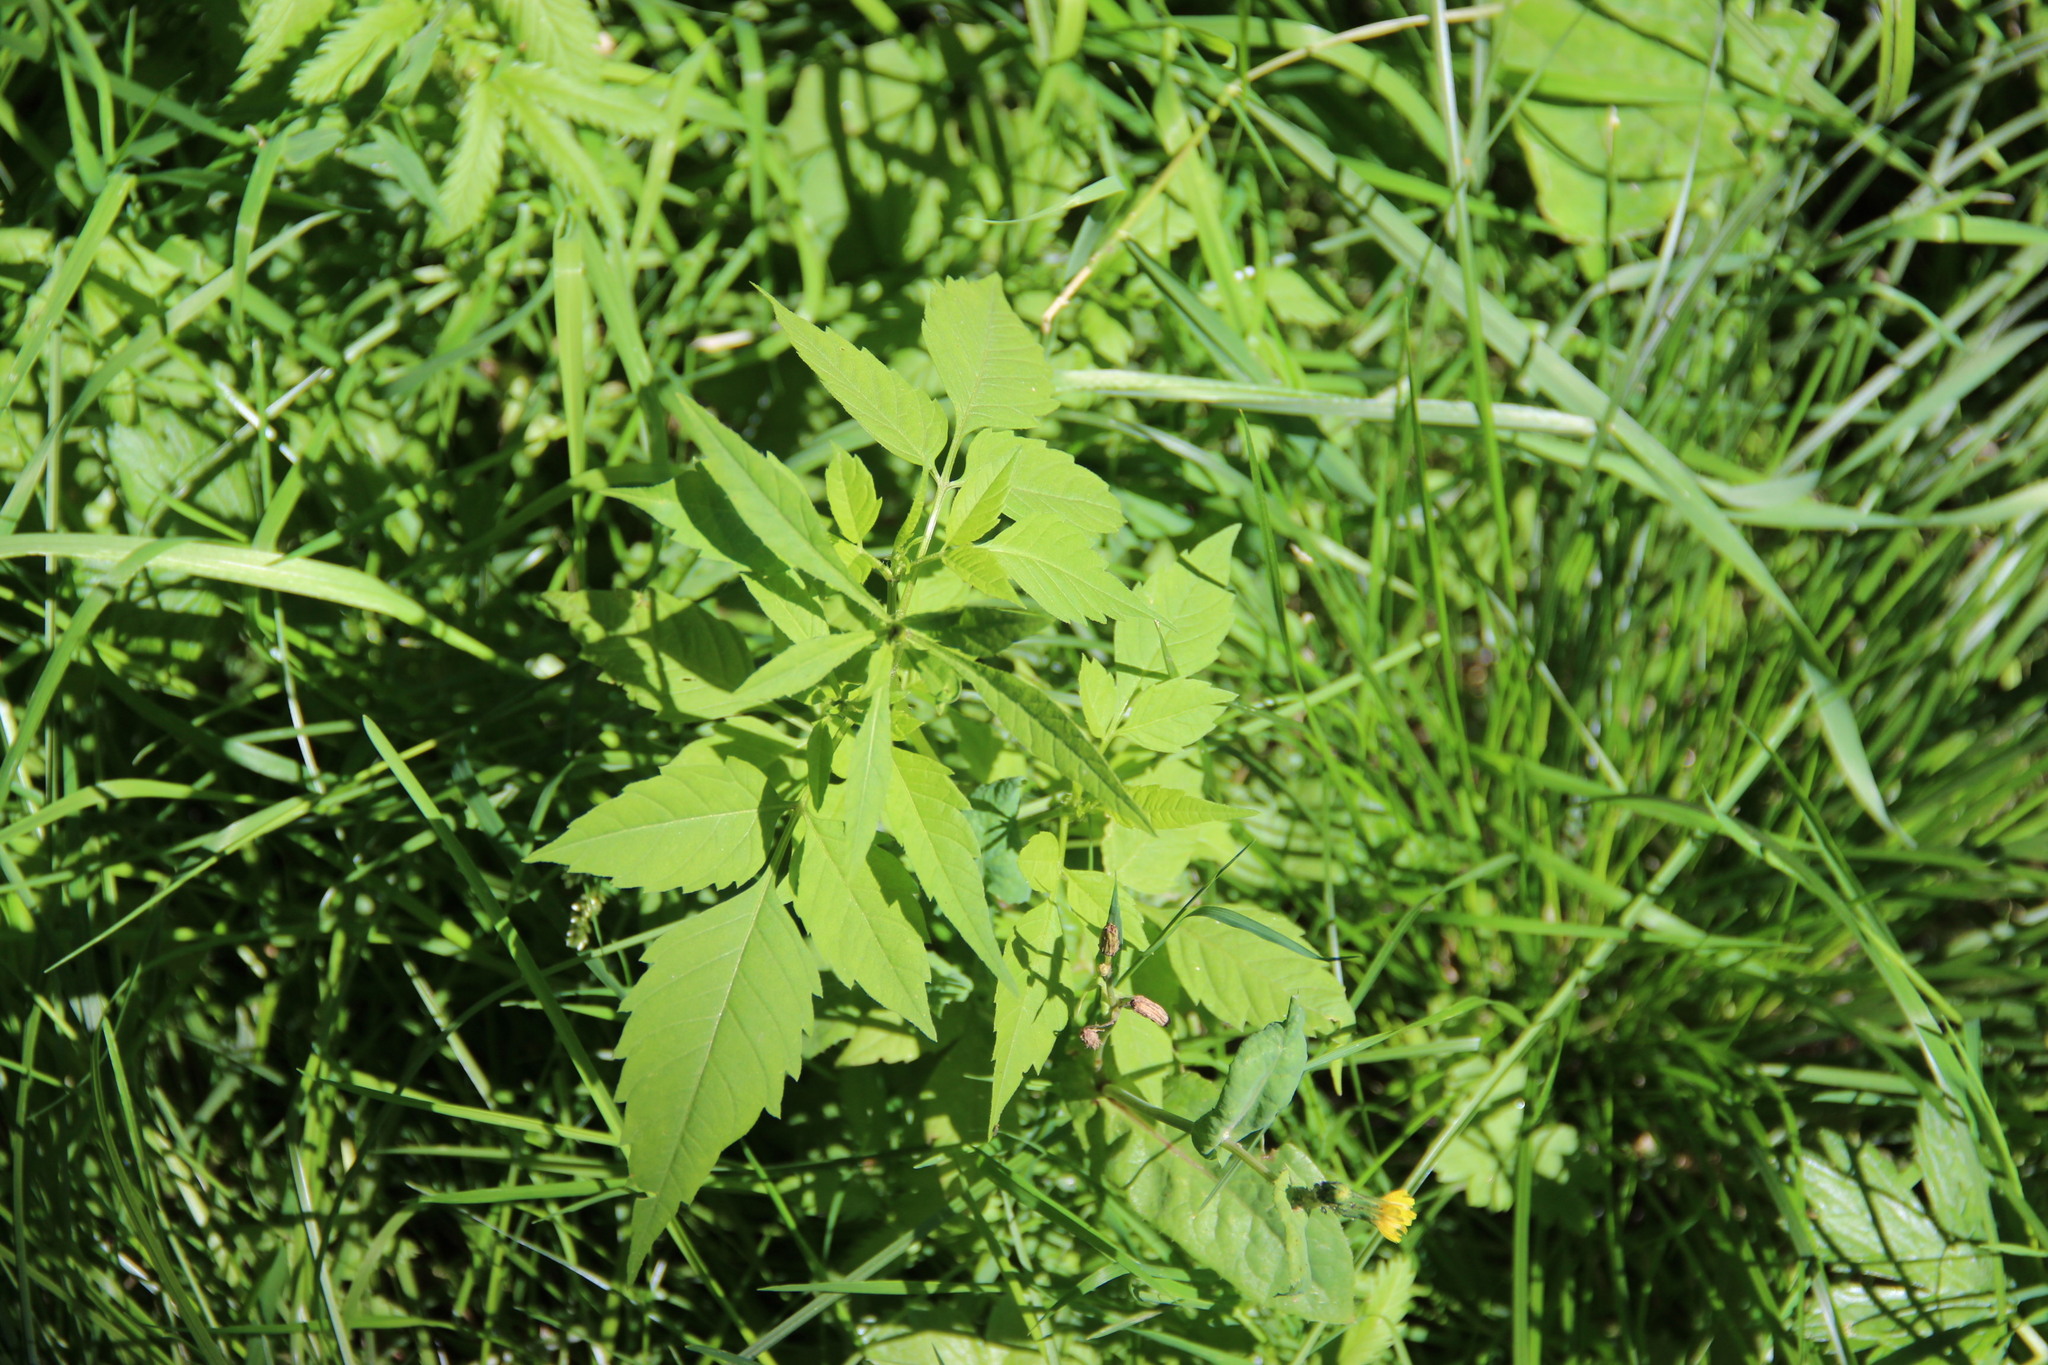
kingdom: Plantae
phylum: Tracheophyta
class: Magnoliopsida
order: Asterales
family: Asteraceae
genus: Bidens
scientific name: Bidens frondosa
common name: Beggarticks
